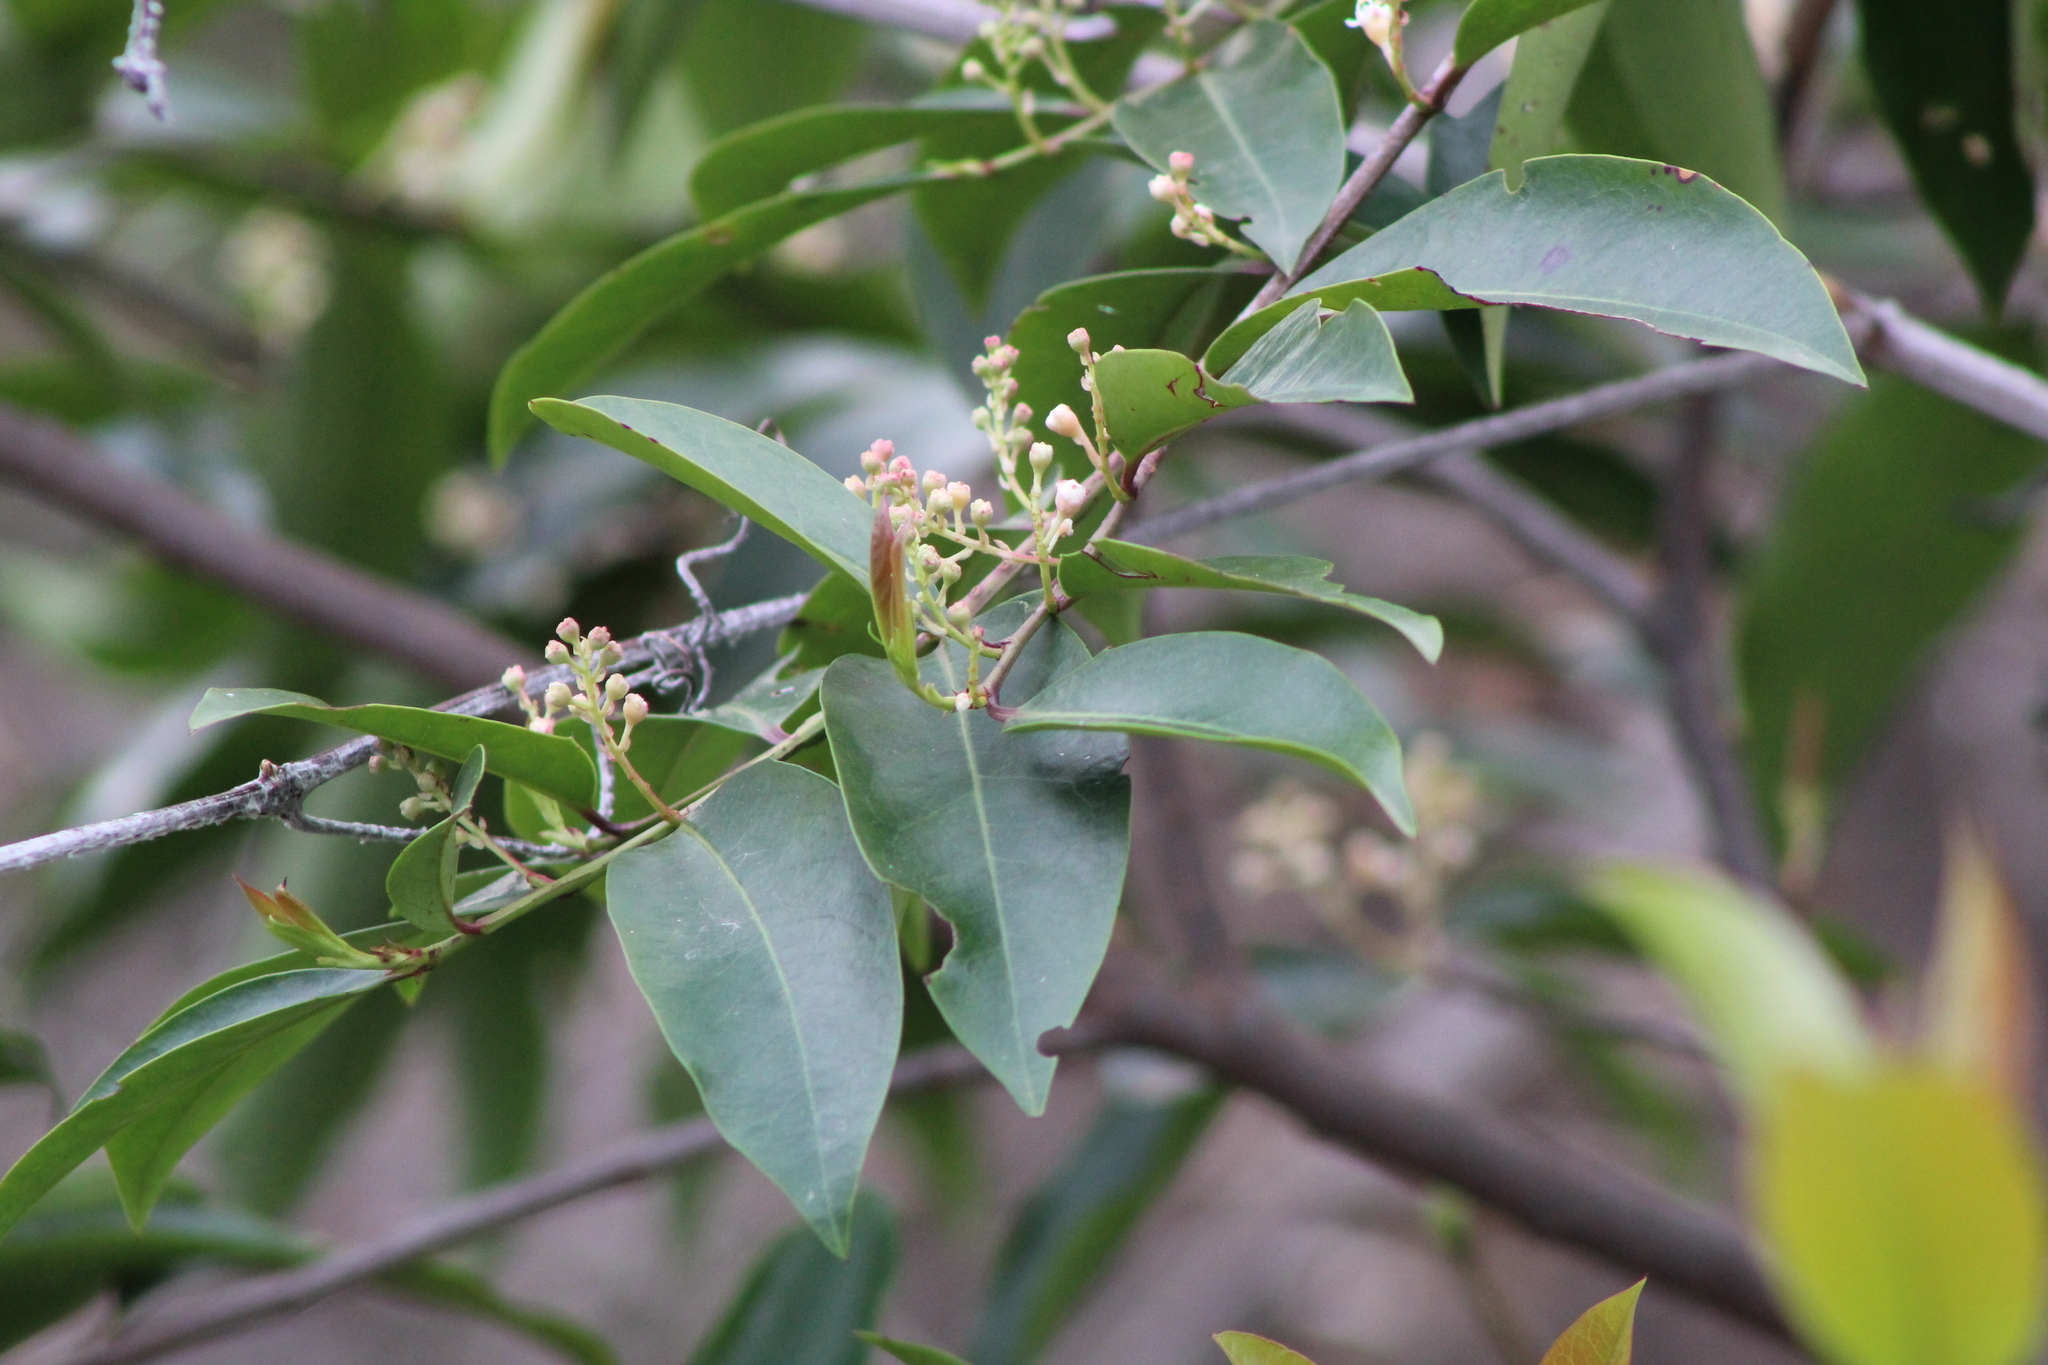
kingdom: Plantae
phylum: Tracheophyta
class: Magnoliopsida
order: Rosales
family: Rosaceae
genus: Prunus
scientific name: Prunus caroliniana
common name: Carolina laurel cherry
